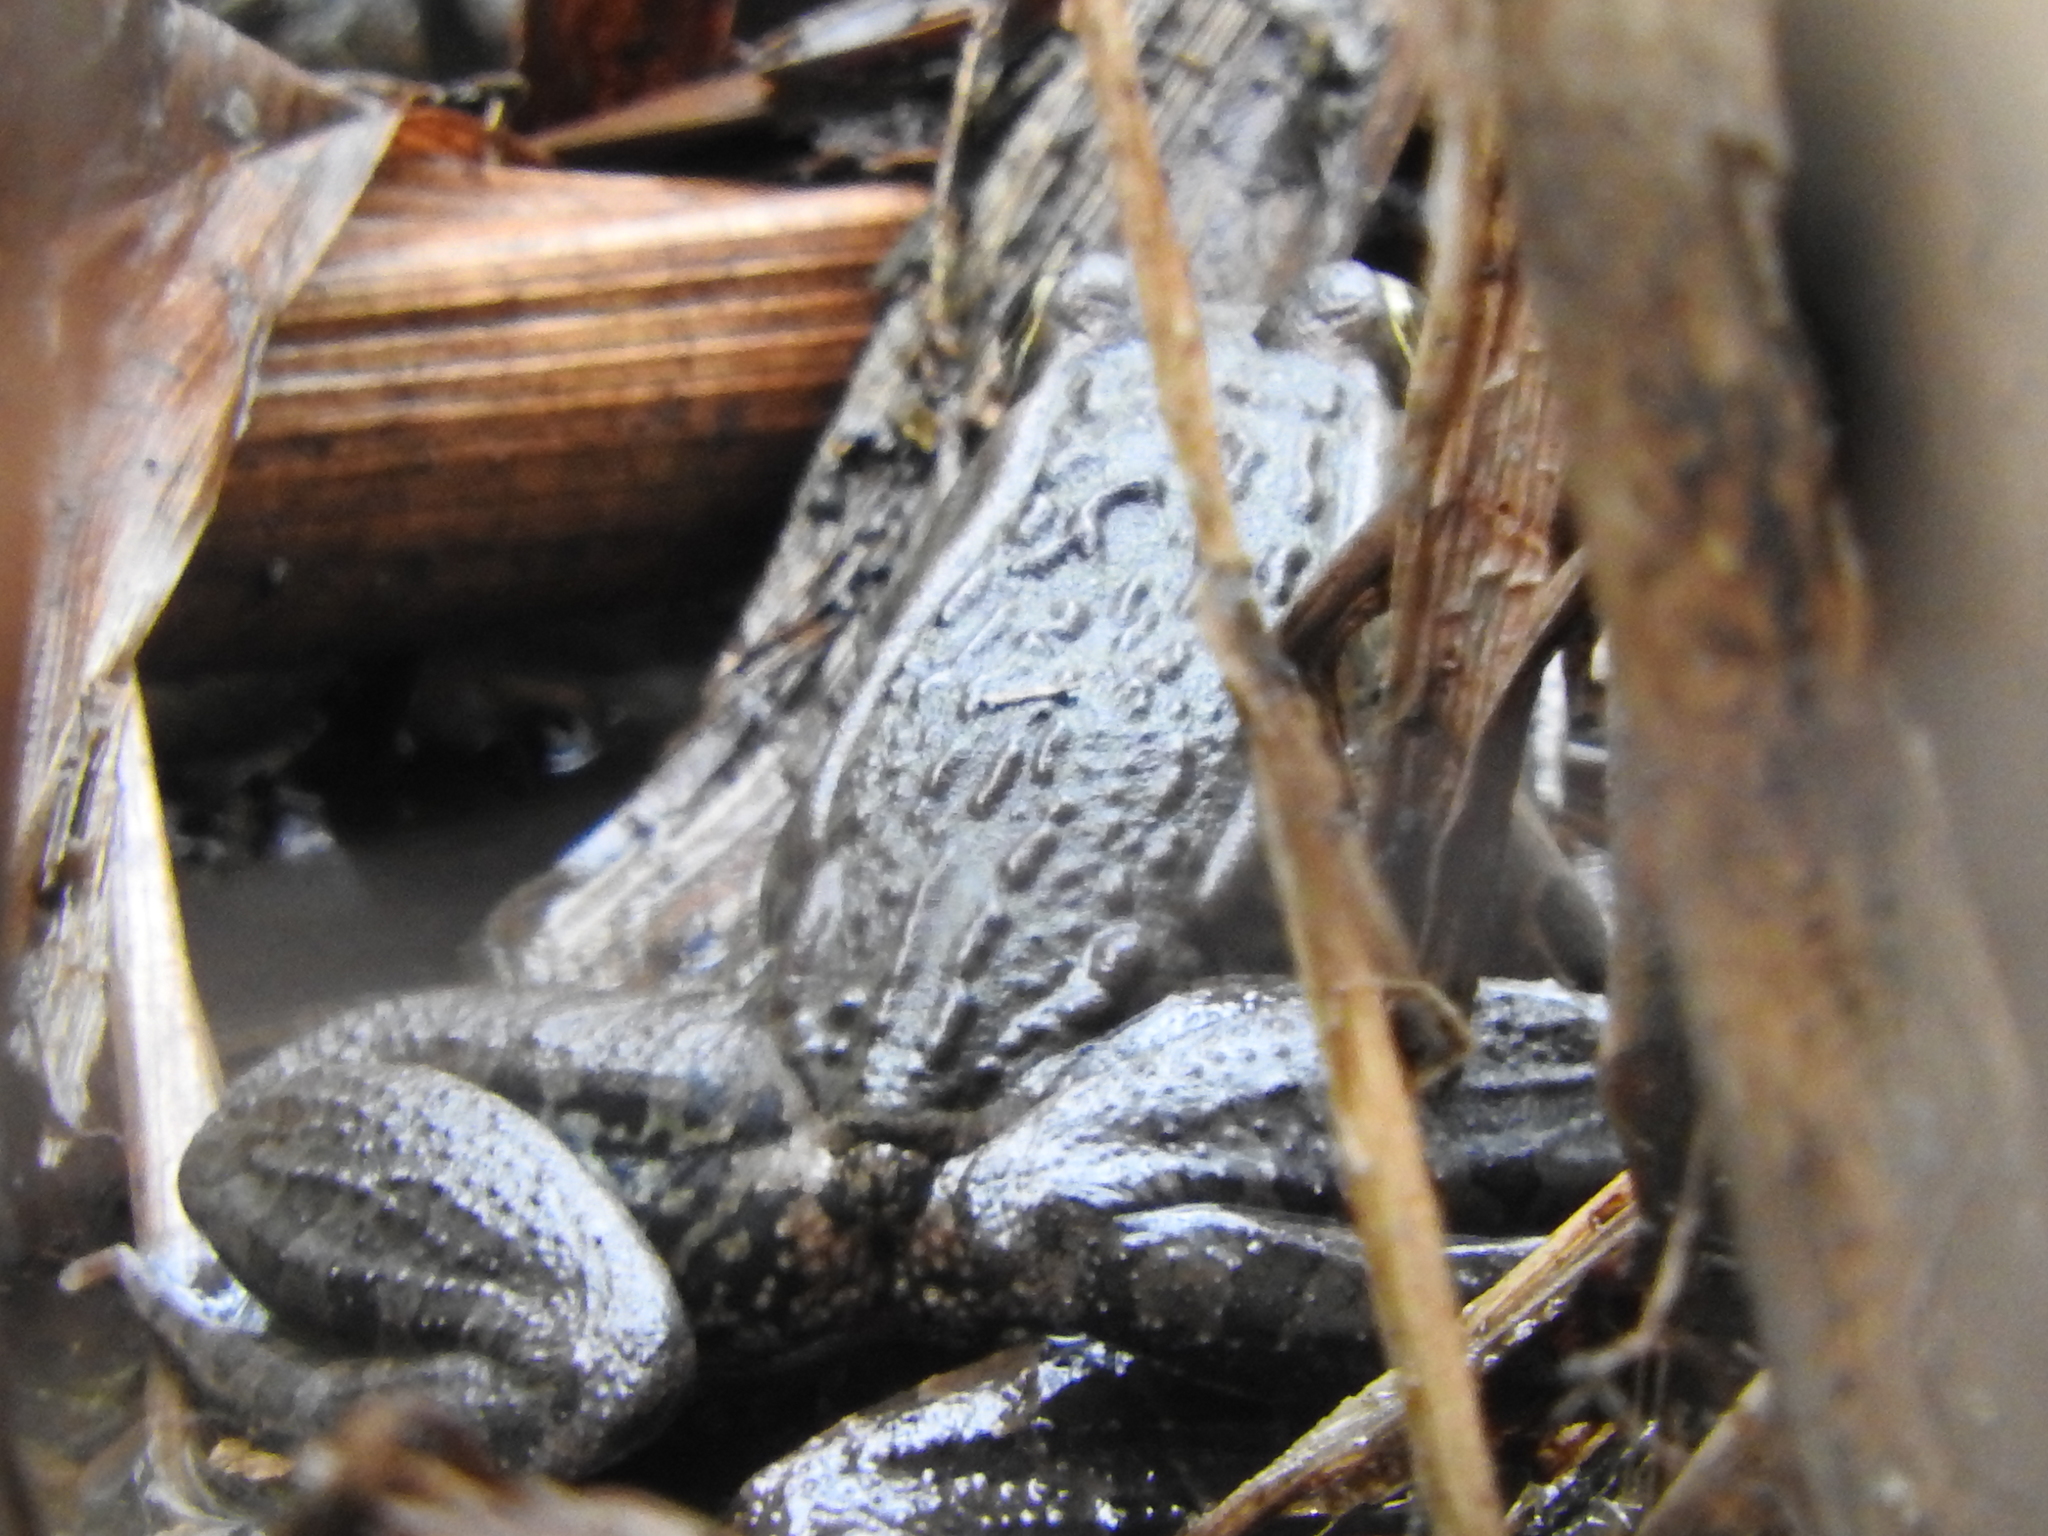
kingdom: Animalia
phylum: Chordata
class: Amphibia
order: Anura
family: Ranidae
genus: Lithobates
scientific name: Lithobates neovolcanicus
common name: Transverse volcanic leopard frog
